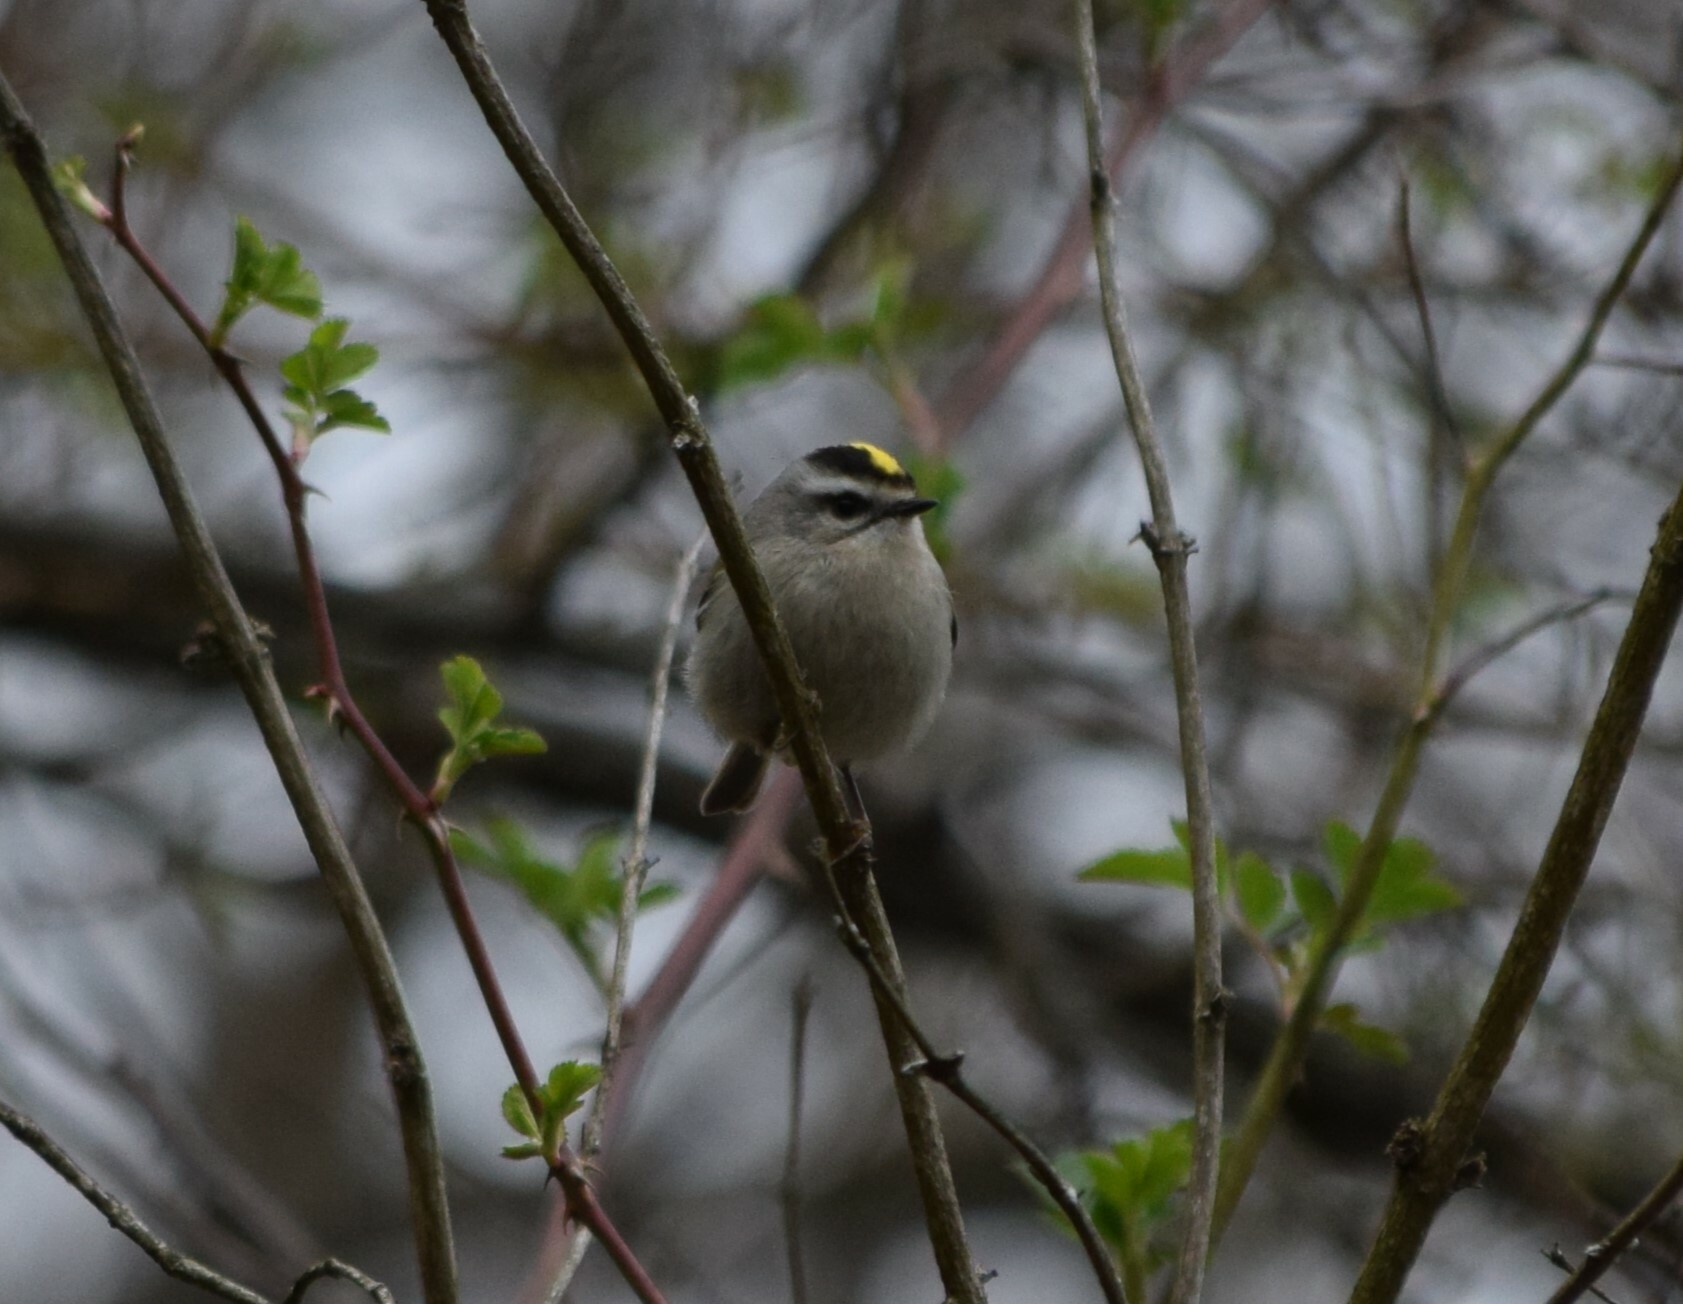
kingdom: Animalia
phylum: Chordata
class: Aves
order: Passeriformes
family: Regulidae
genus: Regulus
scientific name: Regulus satrapa
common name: Golden-crowned kinglet
